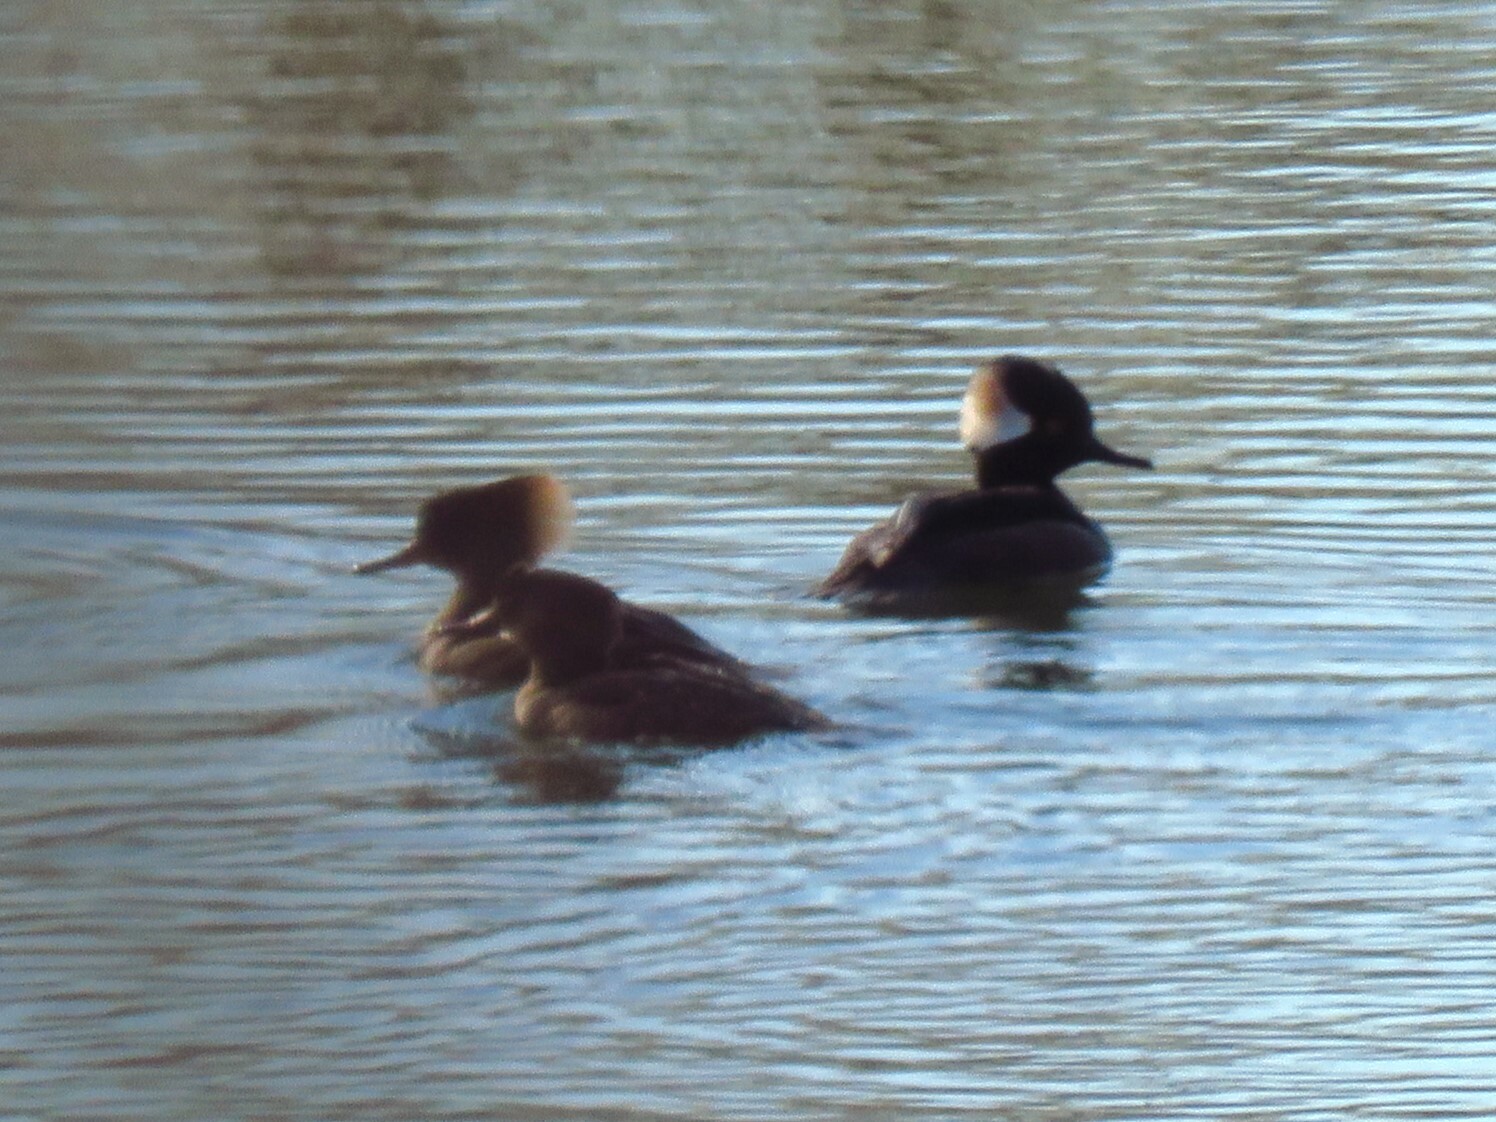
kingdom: Animalia
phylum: Chordata
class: Aves
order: Anseriformes
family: Anatidae
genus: Lophodytes
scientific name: Lophodytes cucullatus
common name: Hooded merganser
